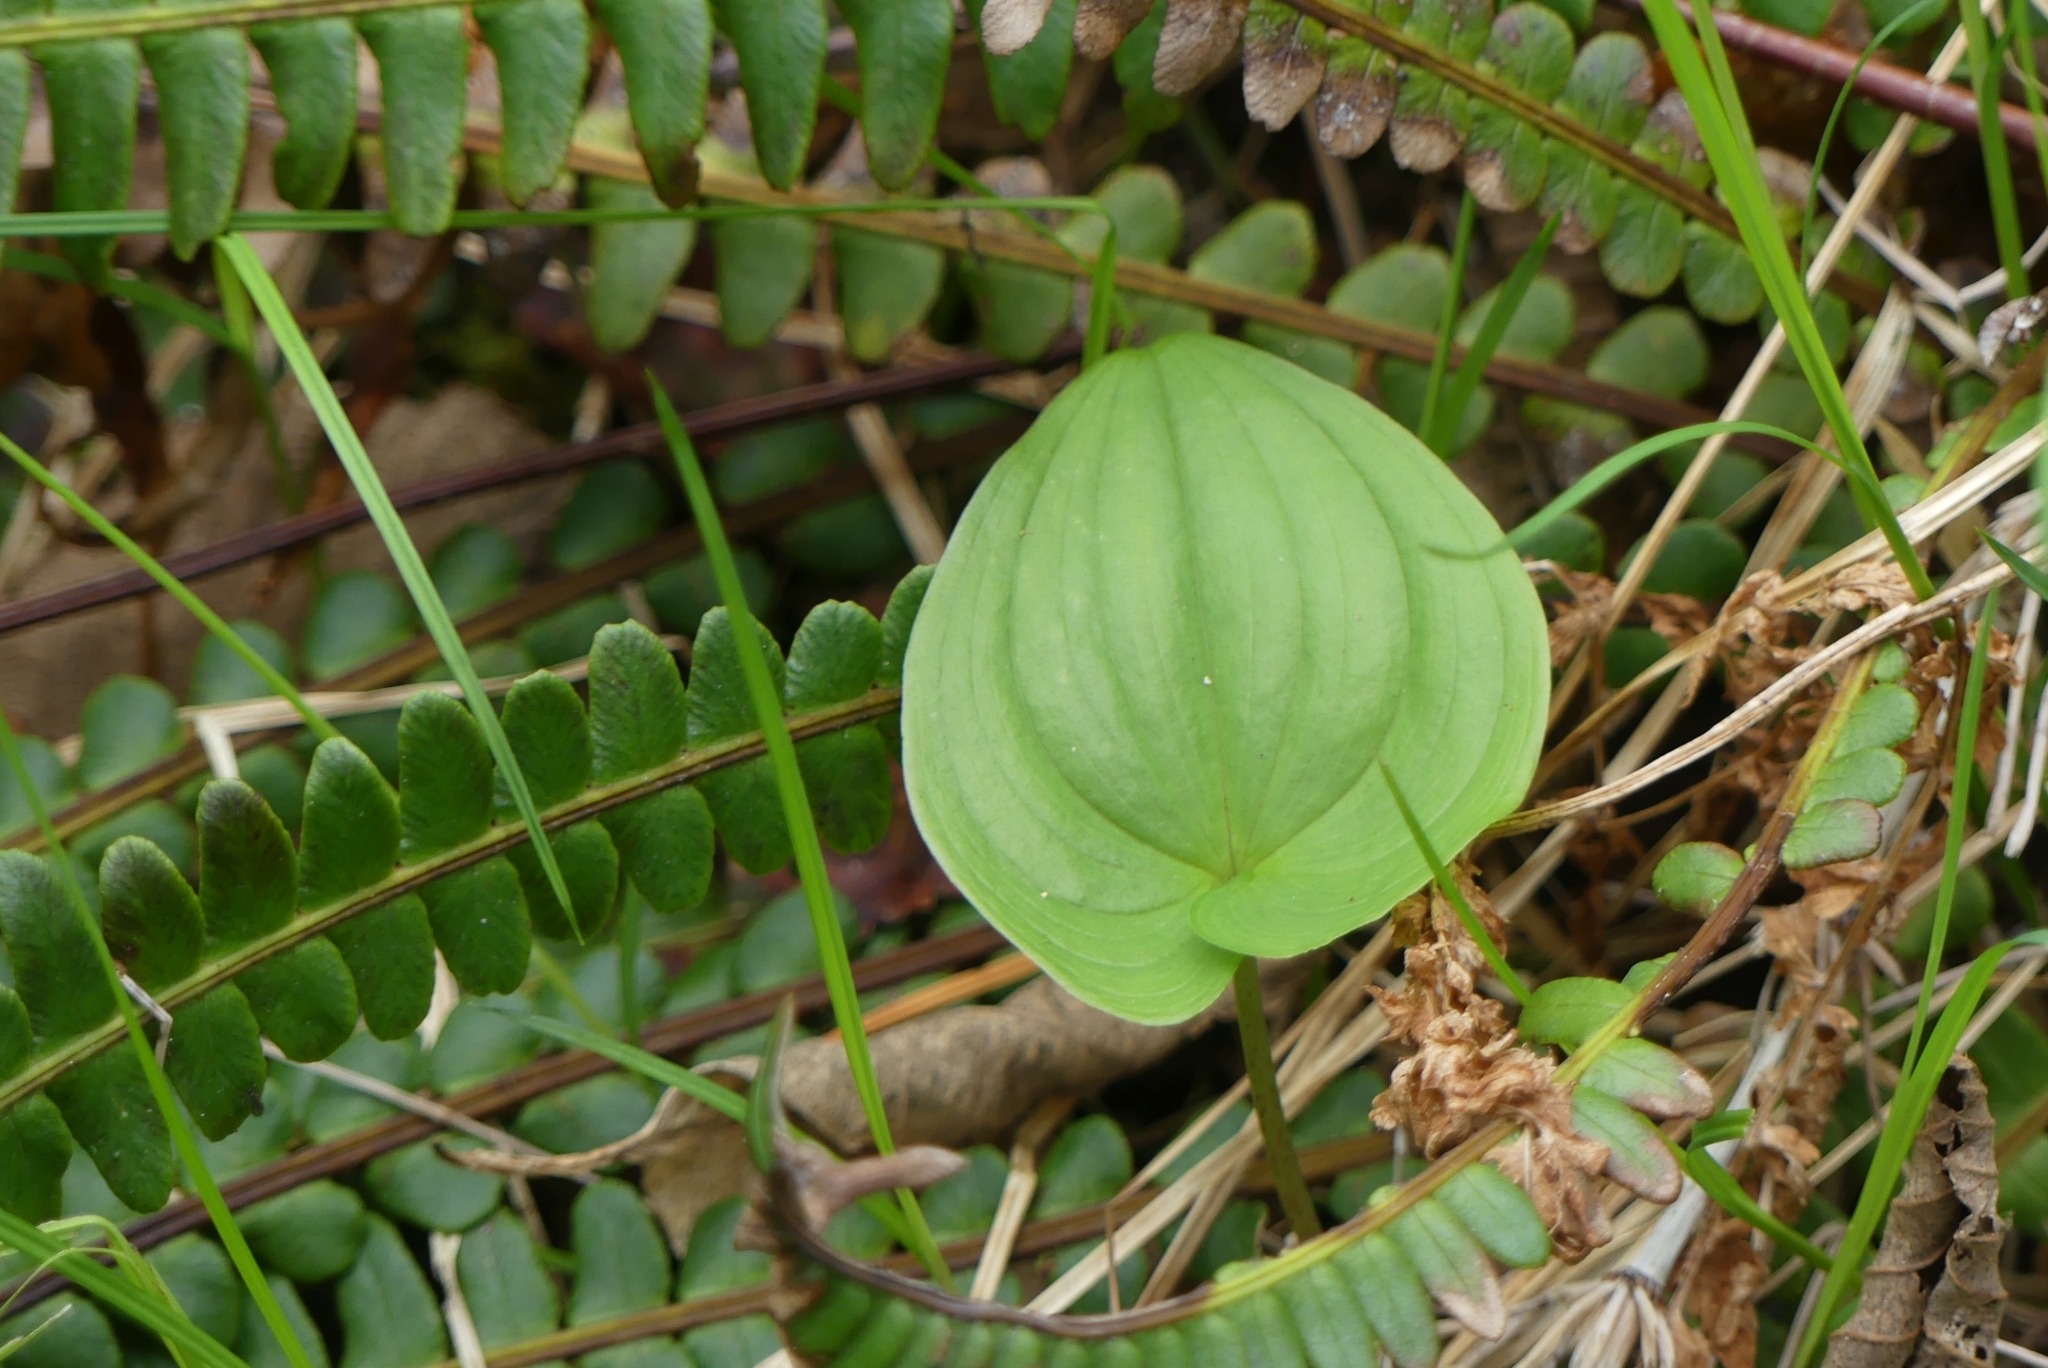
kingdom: Plantae
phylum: Tracheophyta
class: Liliopsida
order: Asparagales
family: Asparagaceae
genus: Maianthemum
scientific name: Maianthemum dilatatum
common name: False lily-of-the-valley
